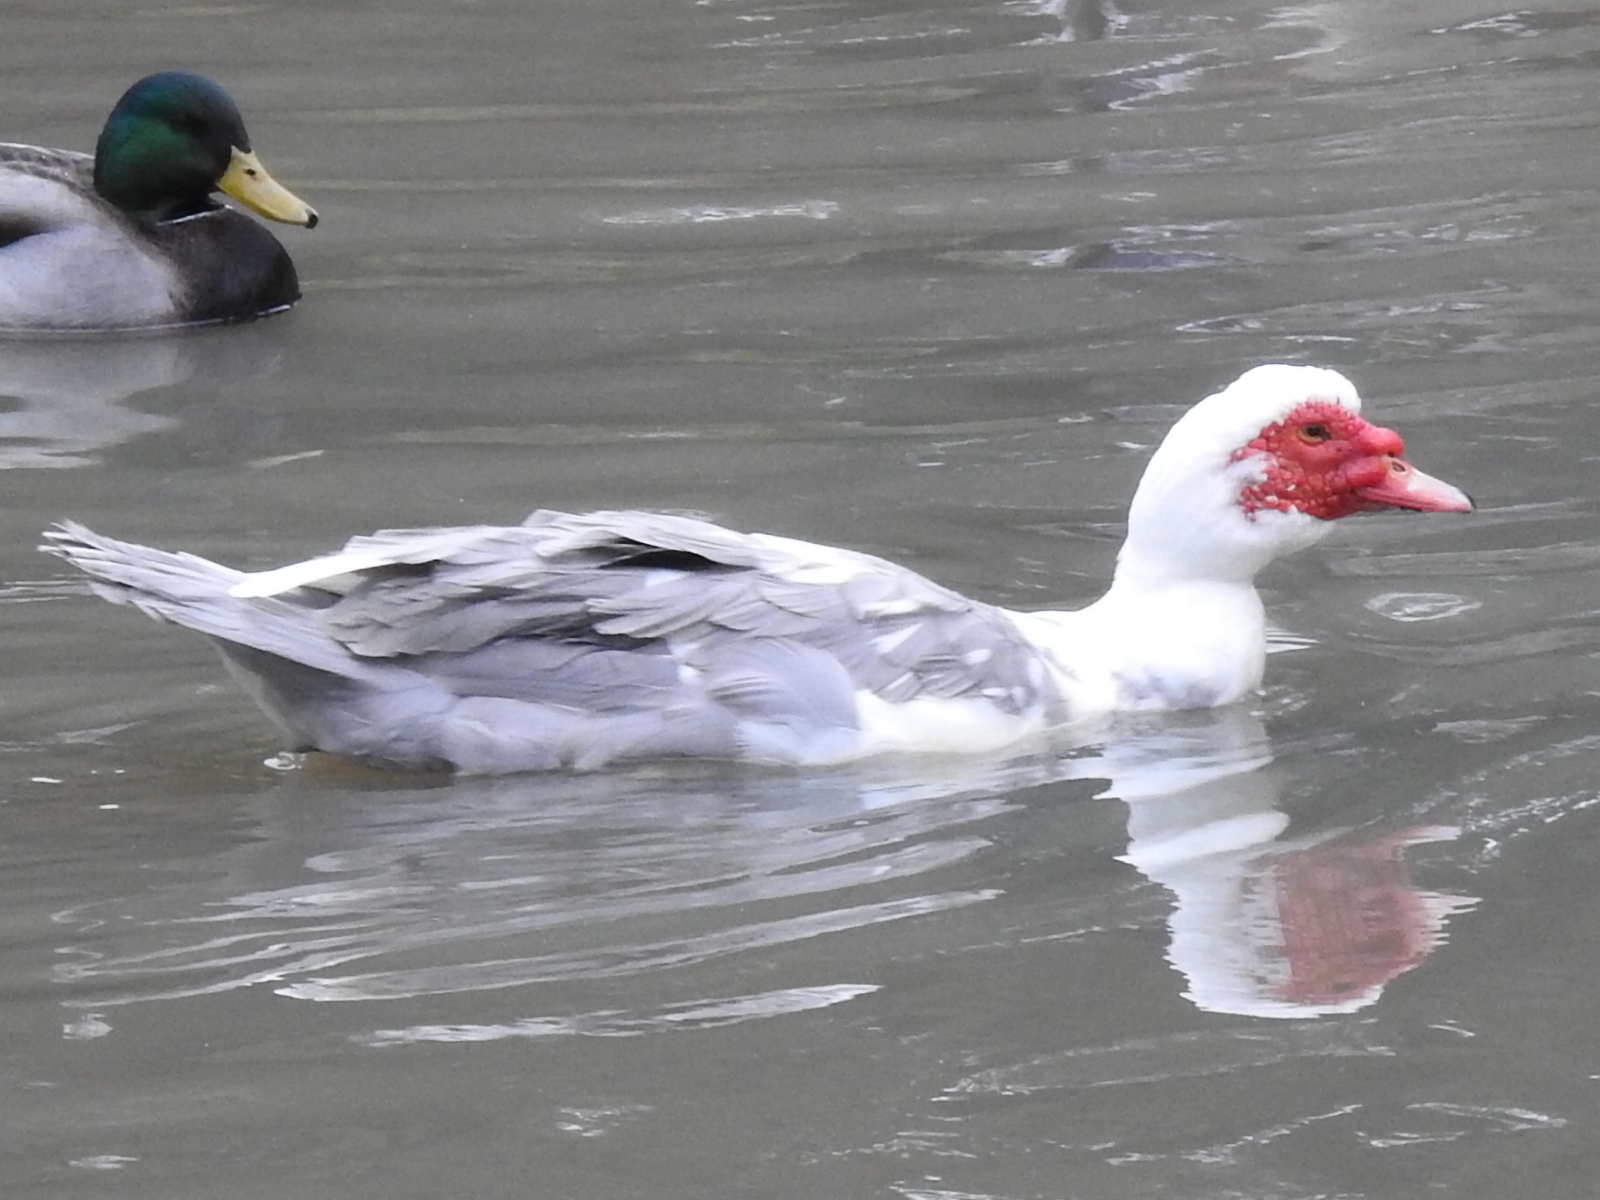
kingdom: Animalia
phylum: Chordata
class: Aves
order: Anseriformes
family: Anatidae
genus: Cairina
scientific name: Cairina moschata
